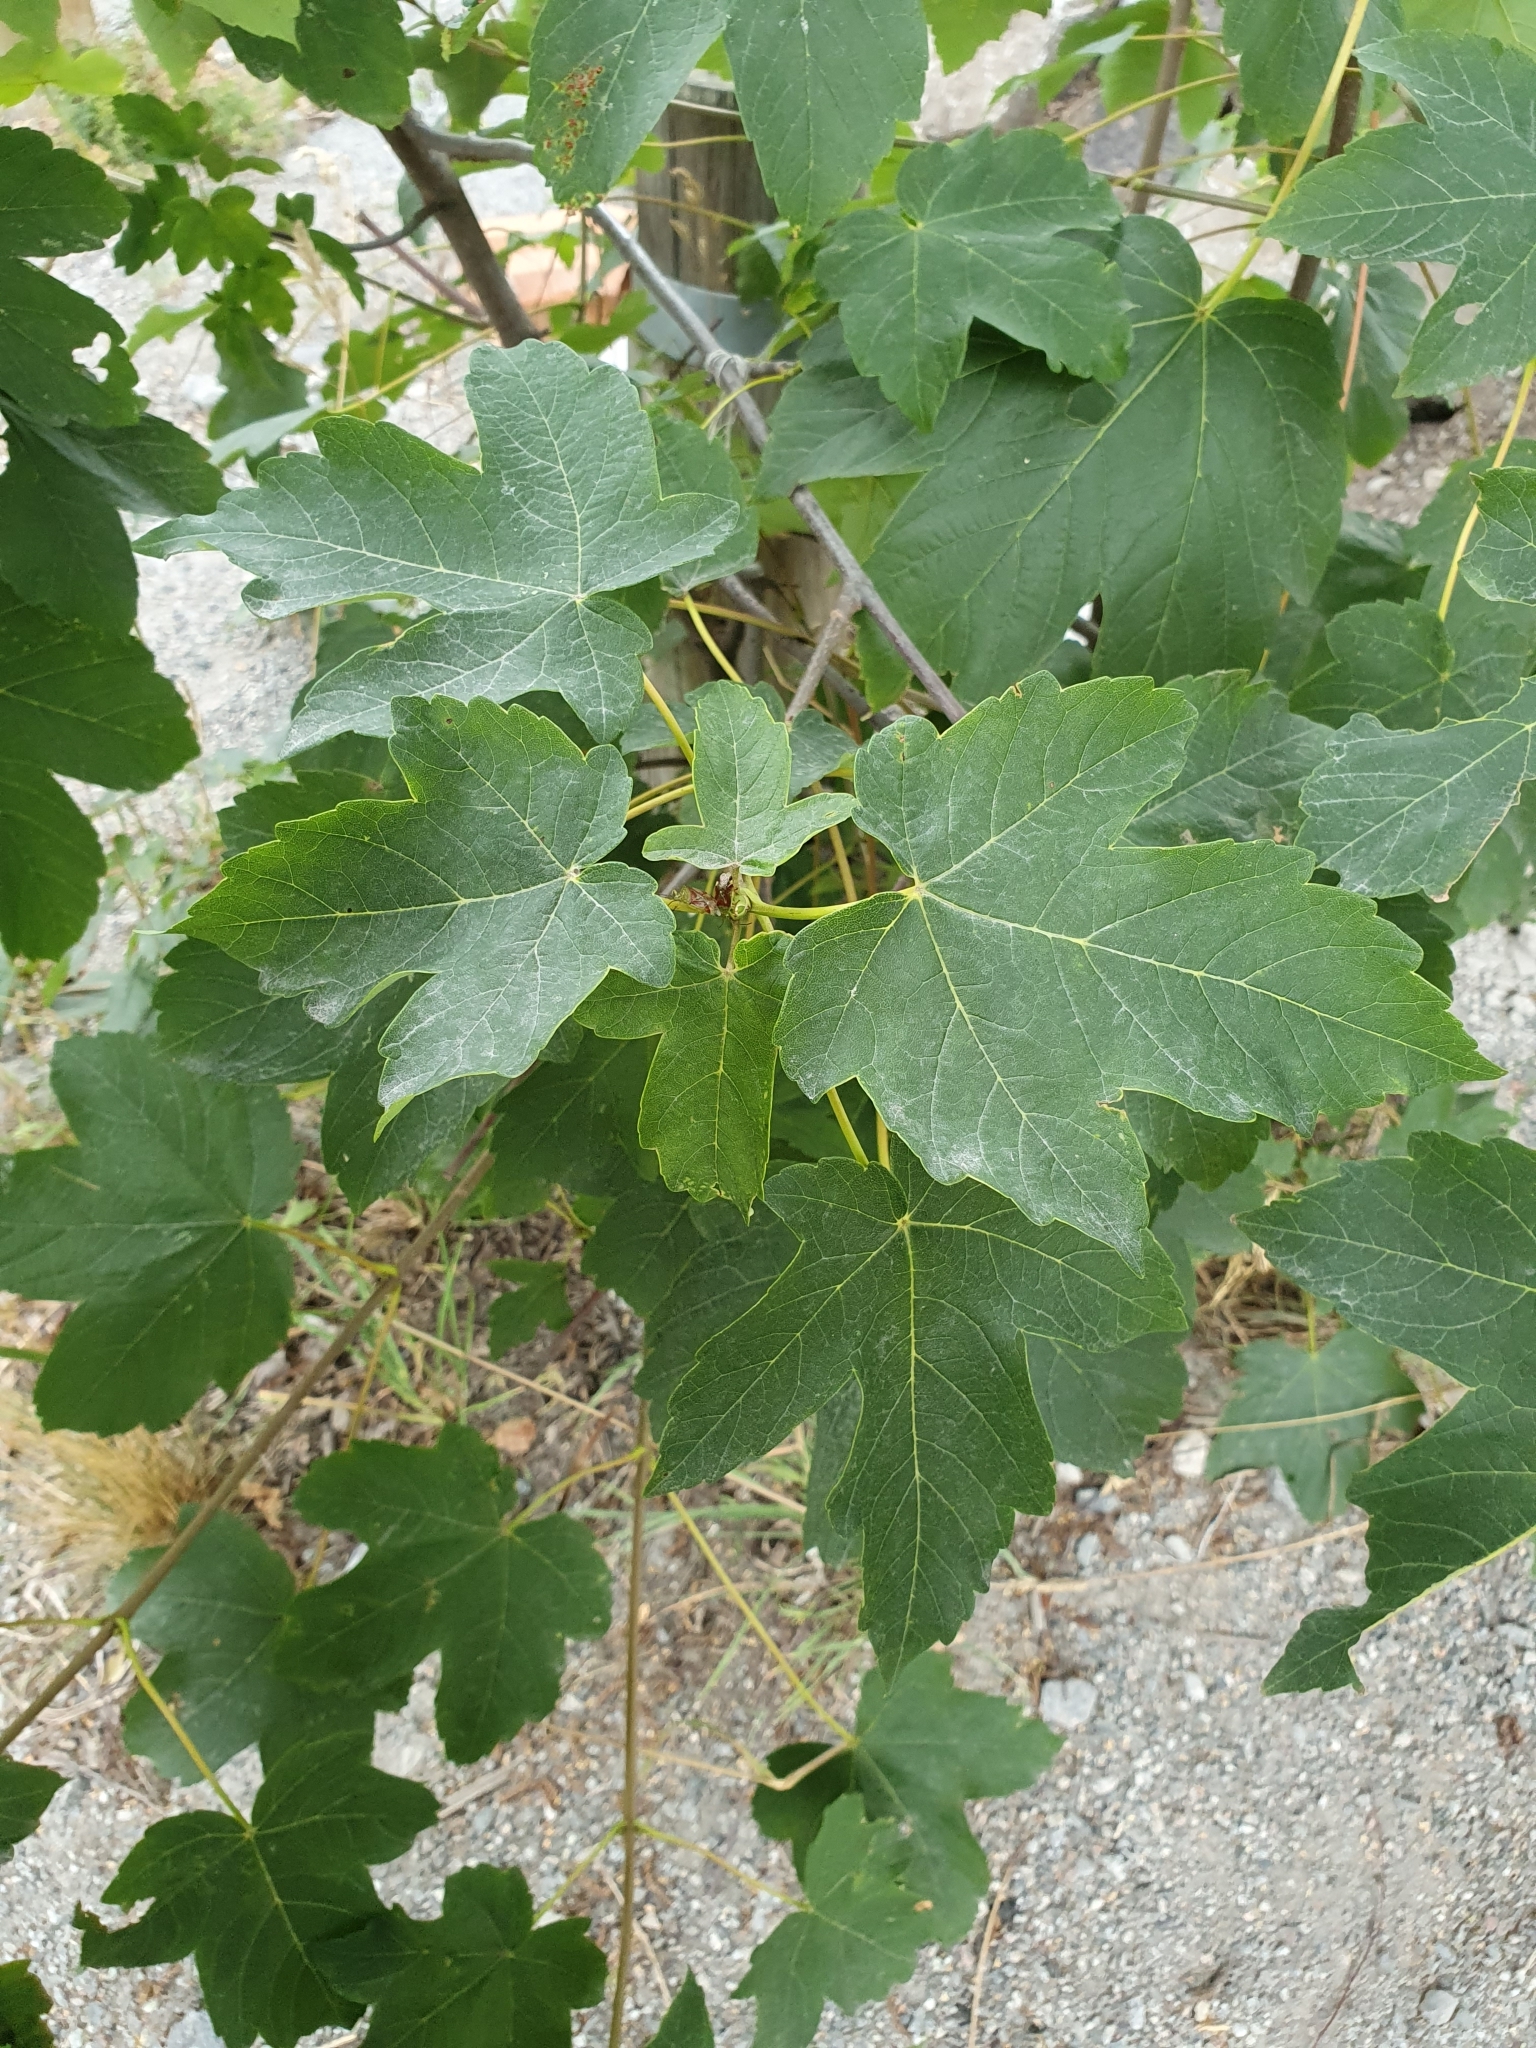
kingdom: Plantae
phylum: Tracheophyta
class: Magnoliopsida
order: Sapindales
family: Sapindaceae
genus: Acer
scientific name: Acer pseudoplatanus
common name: Sycamore
